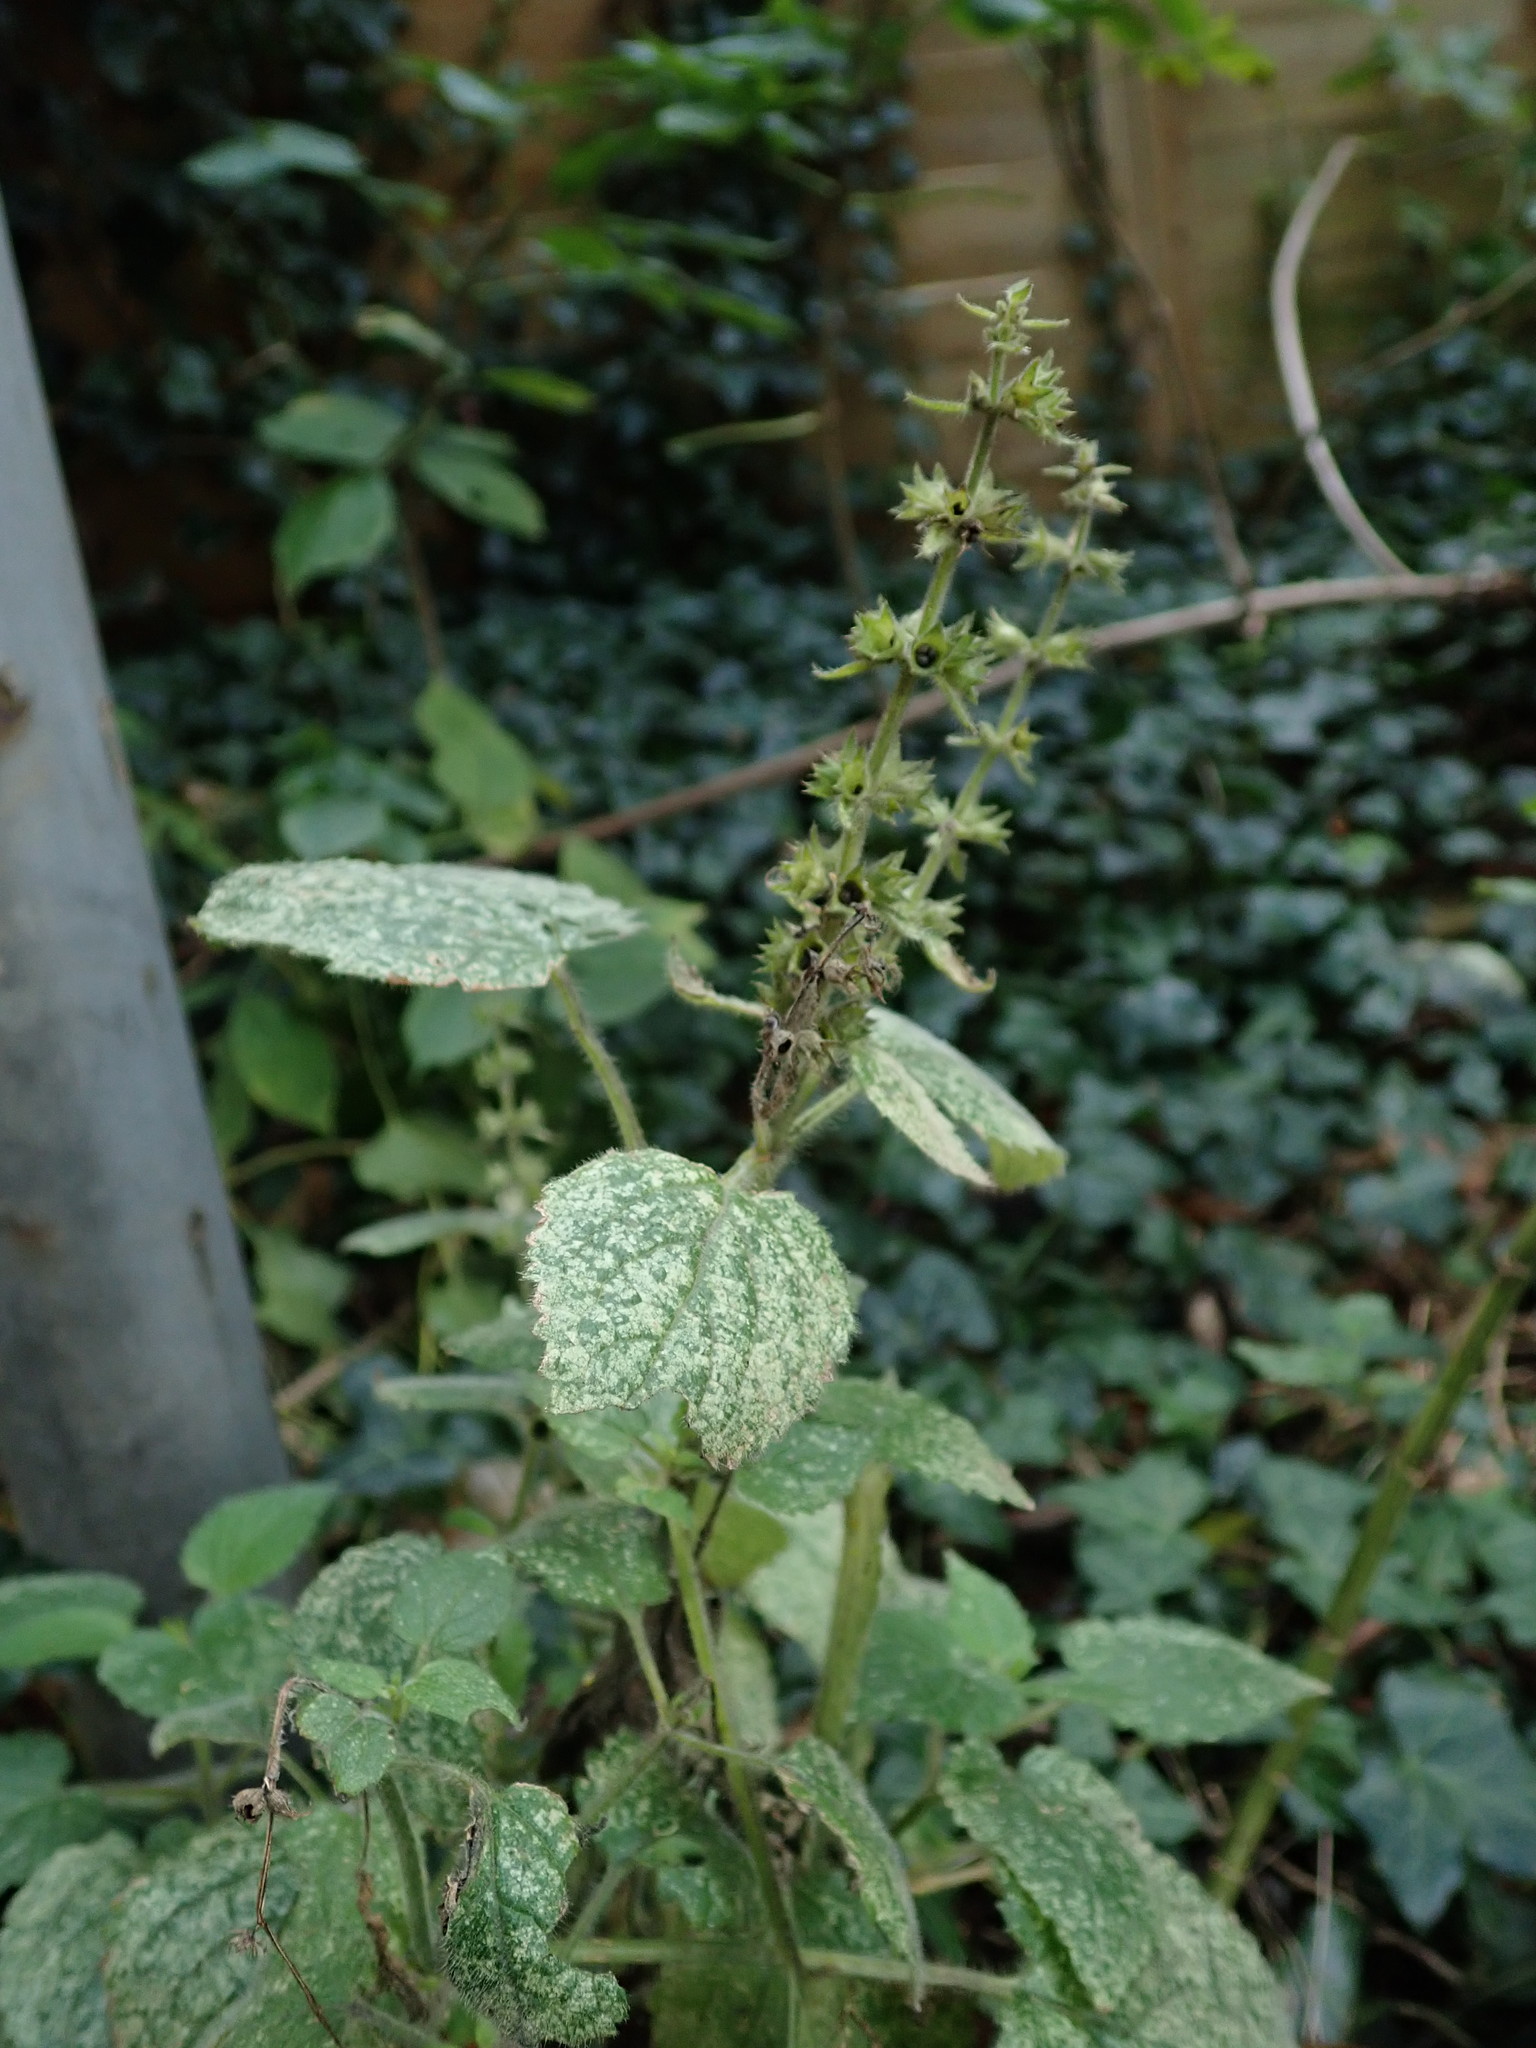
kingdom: Plantae
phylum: Tracheophyta
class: Magnoliopsida
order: Lamiales
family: Lamiaceae
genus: Stachys
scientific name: Stachys sylvatica
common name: Hedge woundwort
